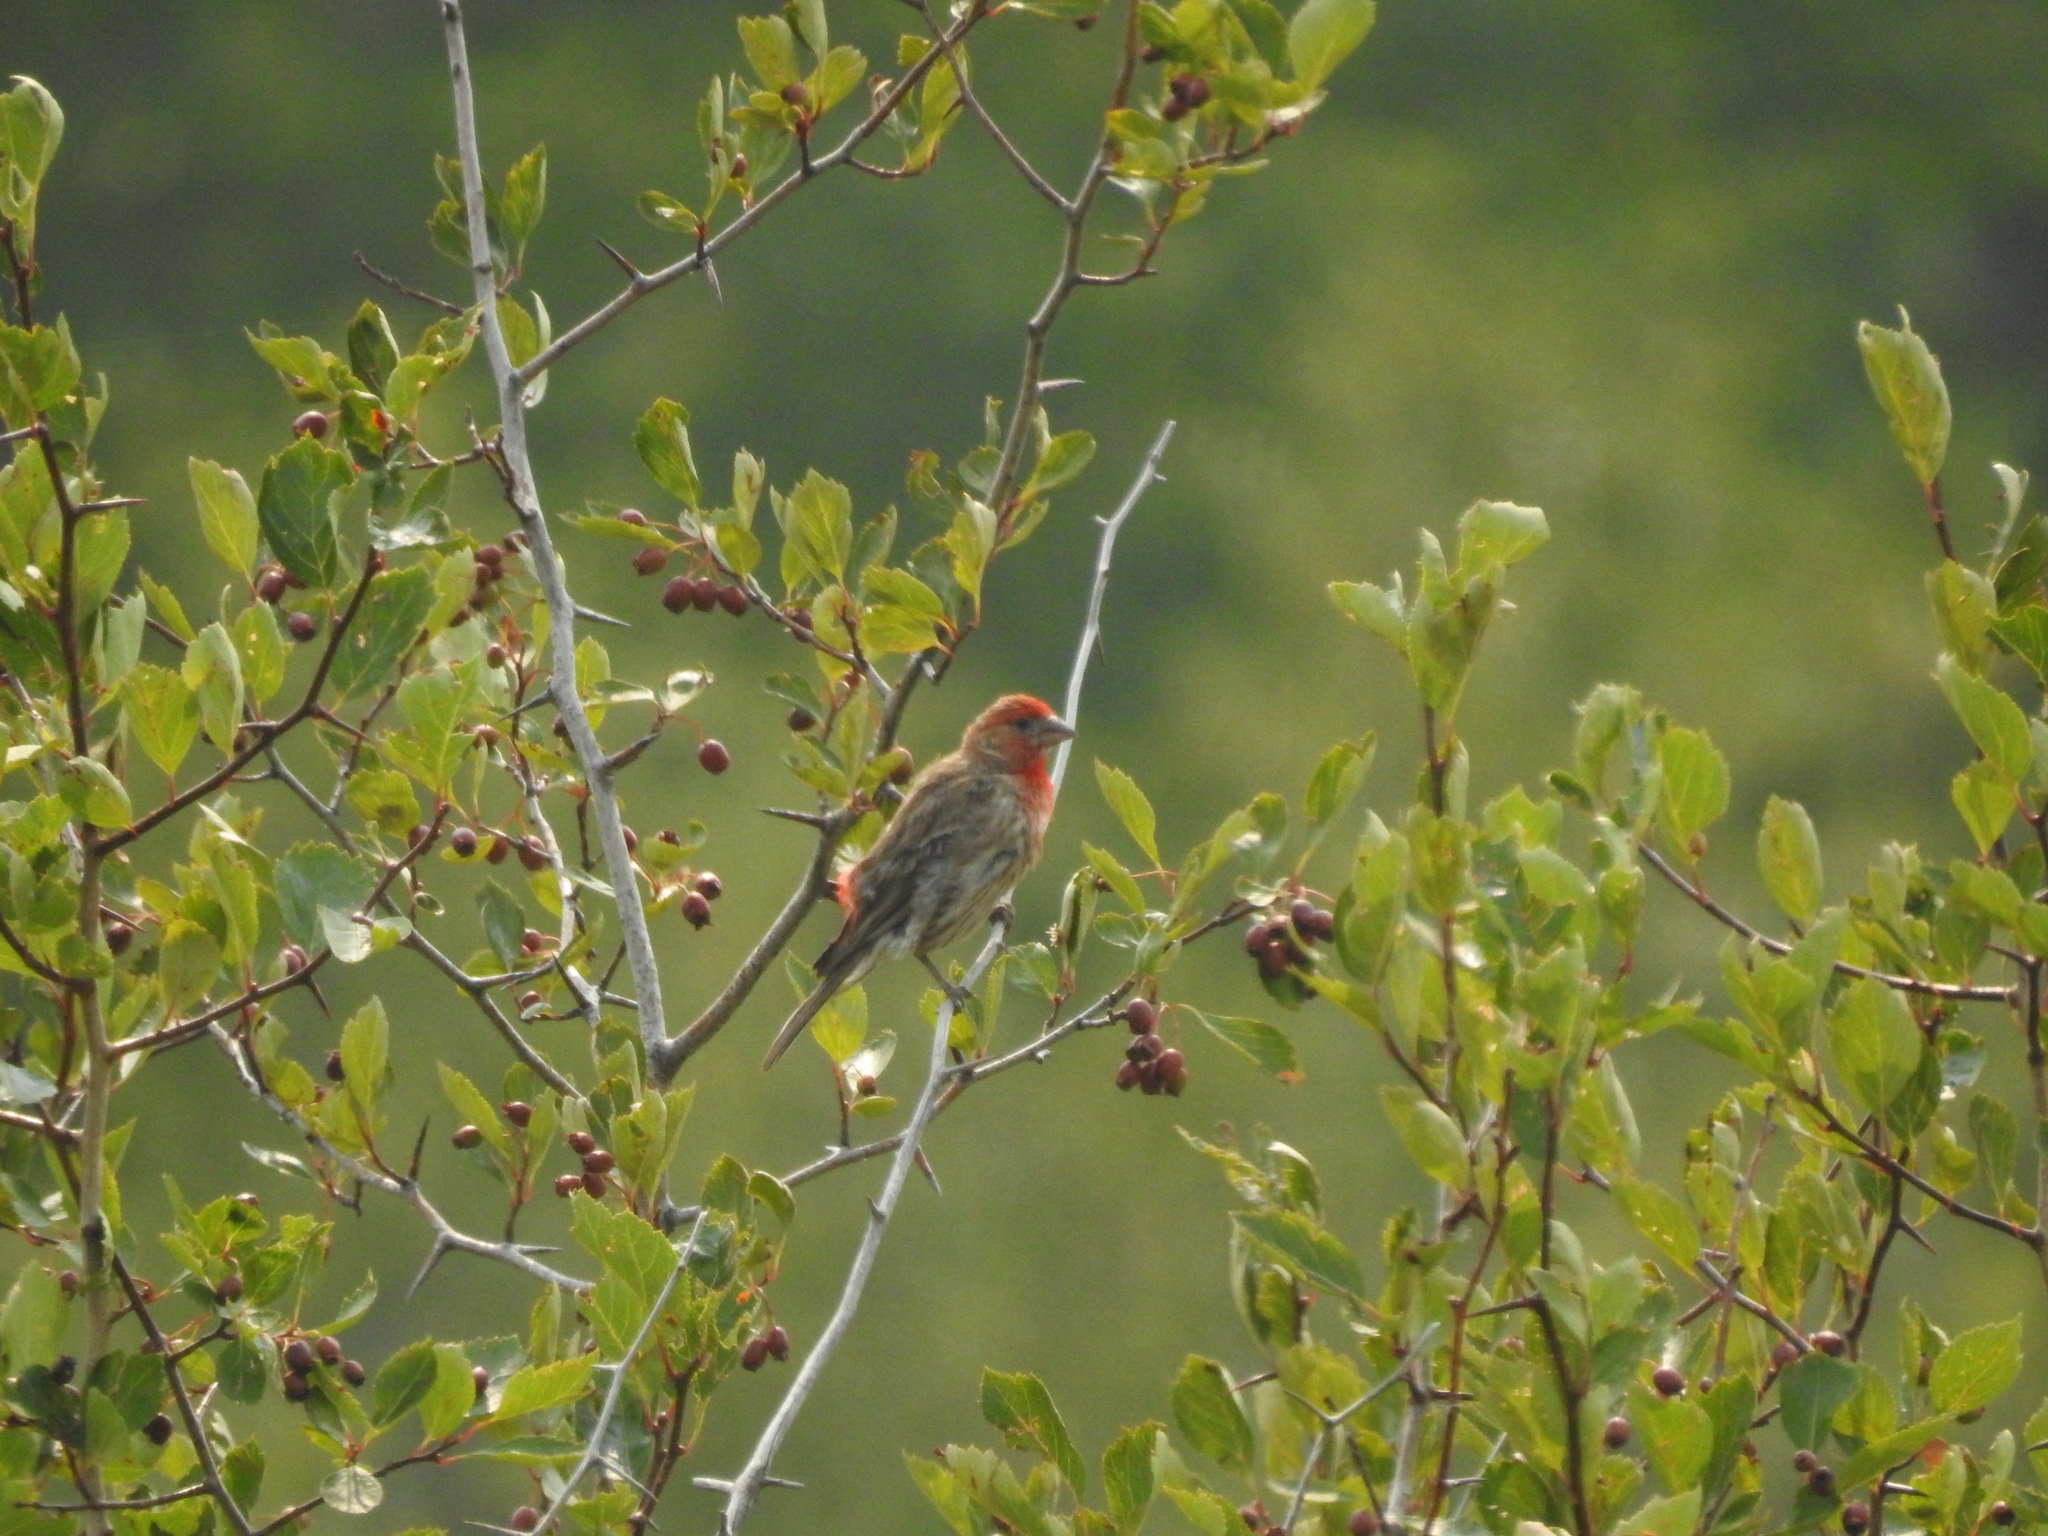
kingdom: Animalia
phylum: Chordata
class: Aves
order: Passeriformes
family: Fringillidae
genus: Haemorhous
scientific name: Haemorhous mexicanus
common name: House finch
